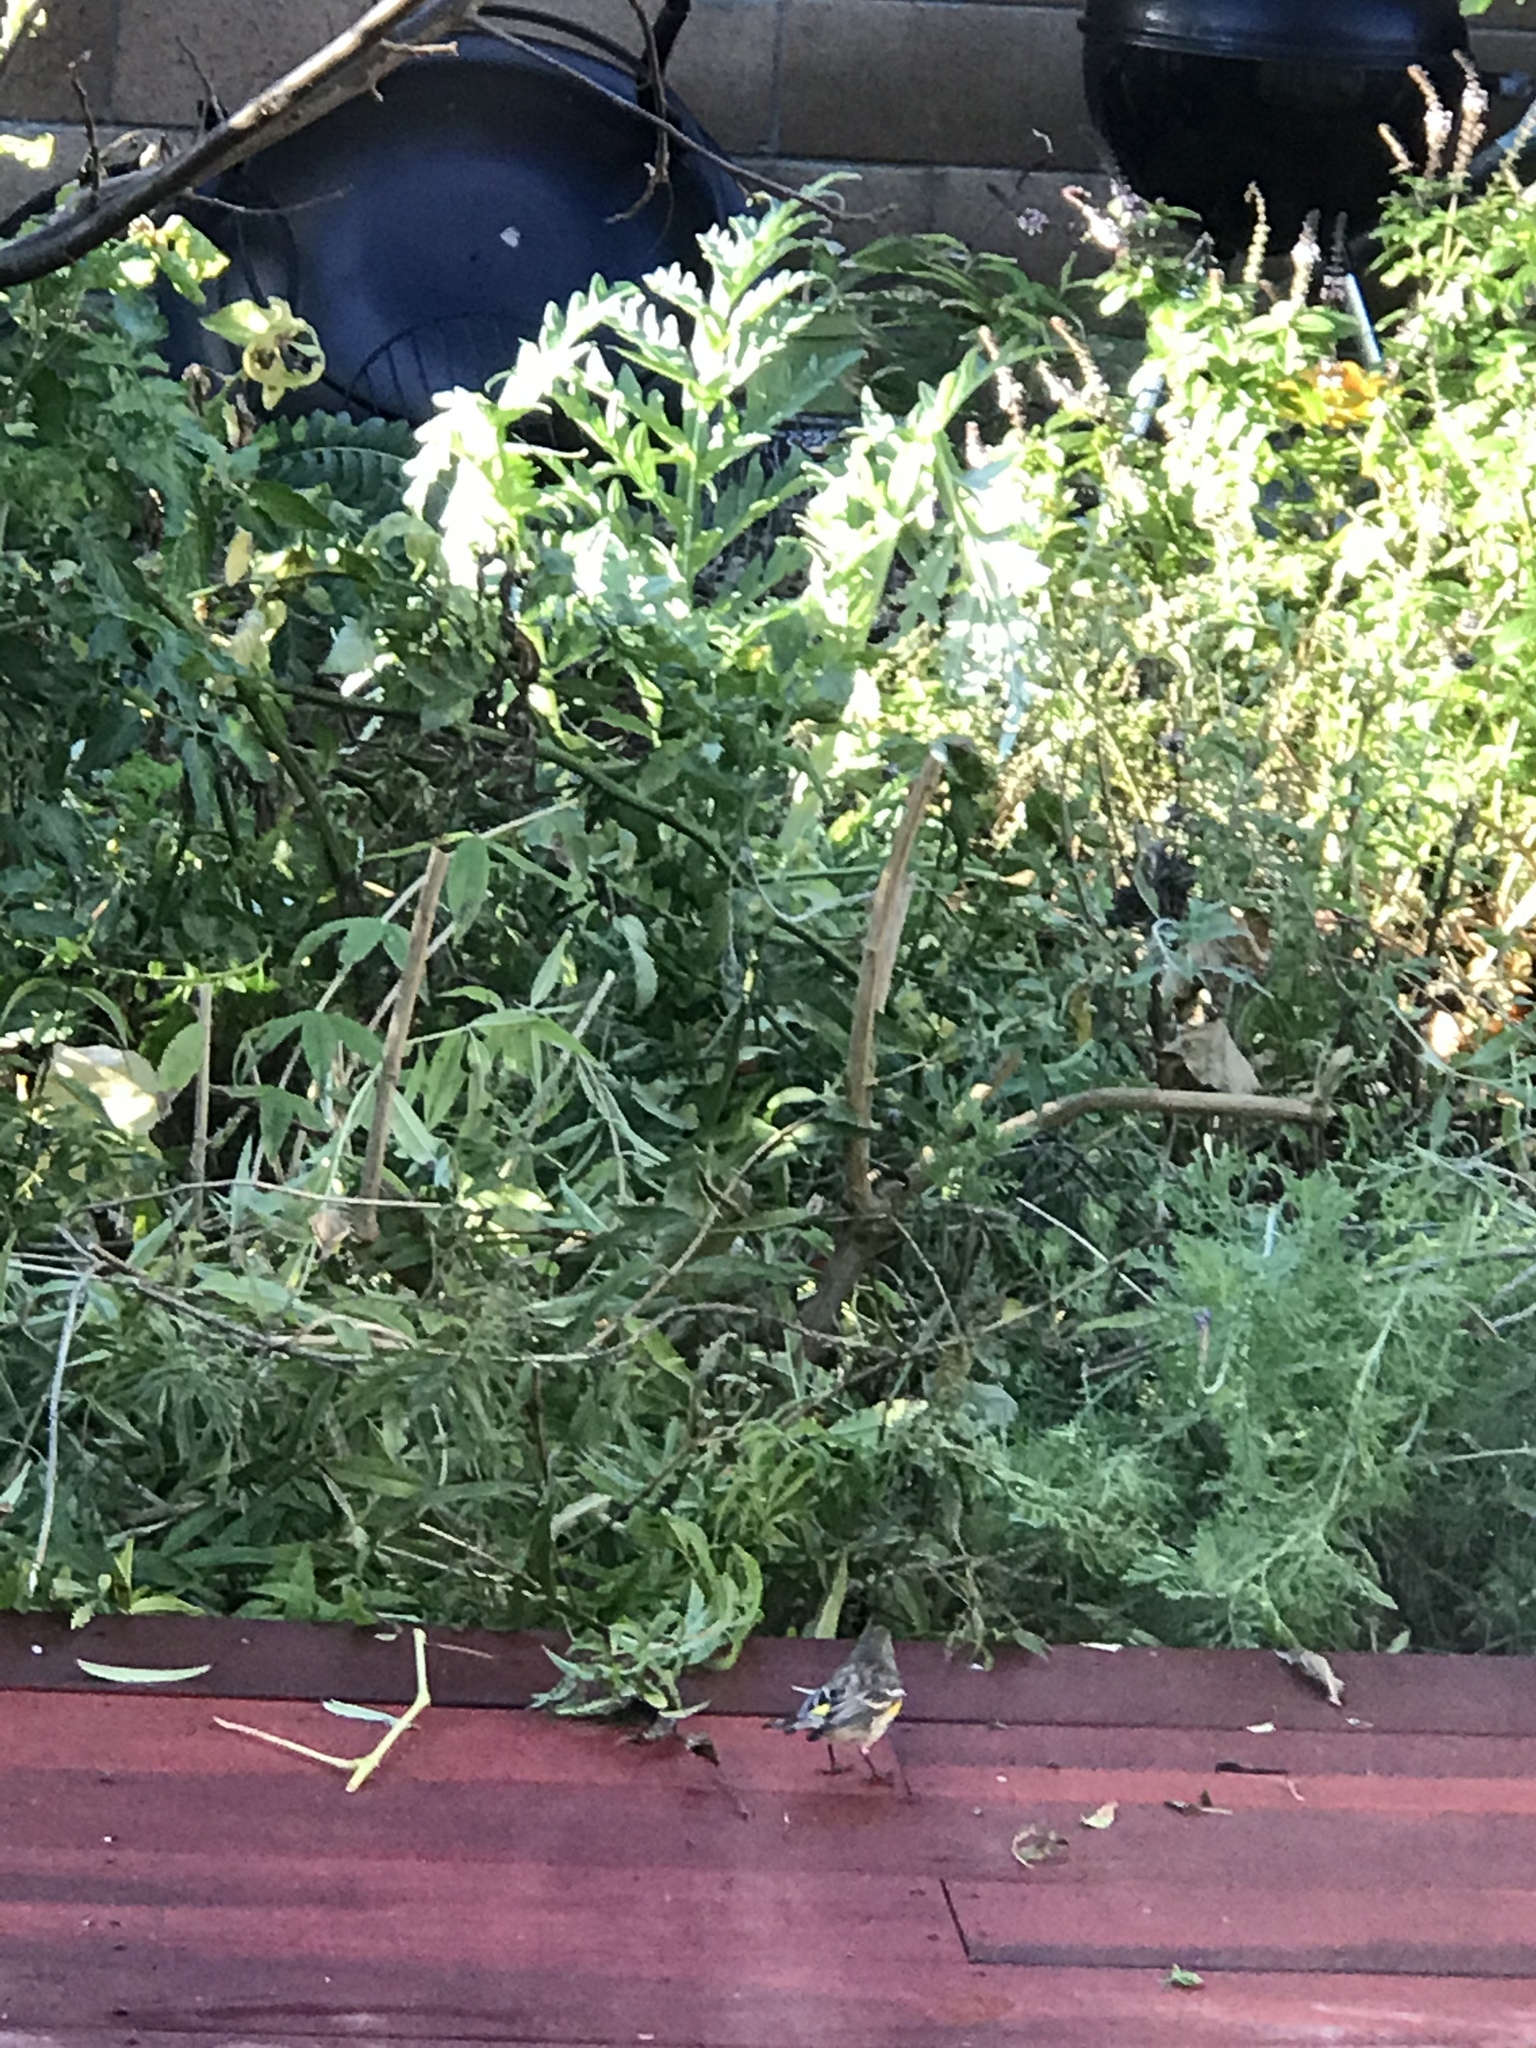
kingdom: Animalia
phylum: Chordata
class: Aves
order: Passeriformes
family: Parulidae
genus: Setophaga
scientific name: Setophaga coronata
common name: Myrtle warbler
